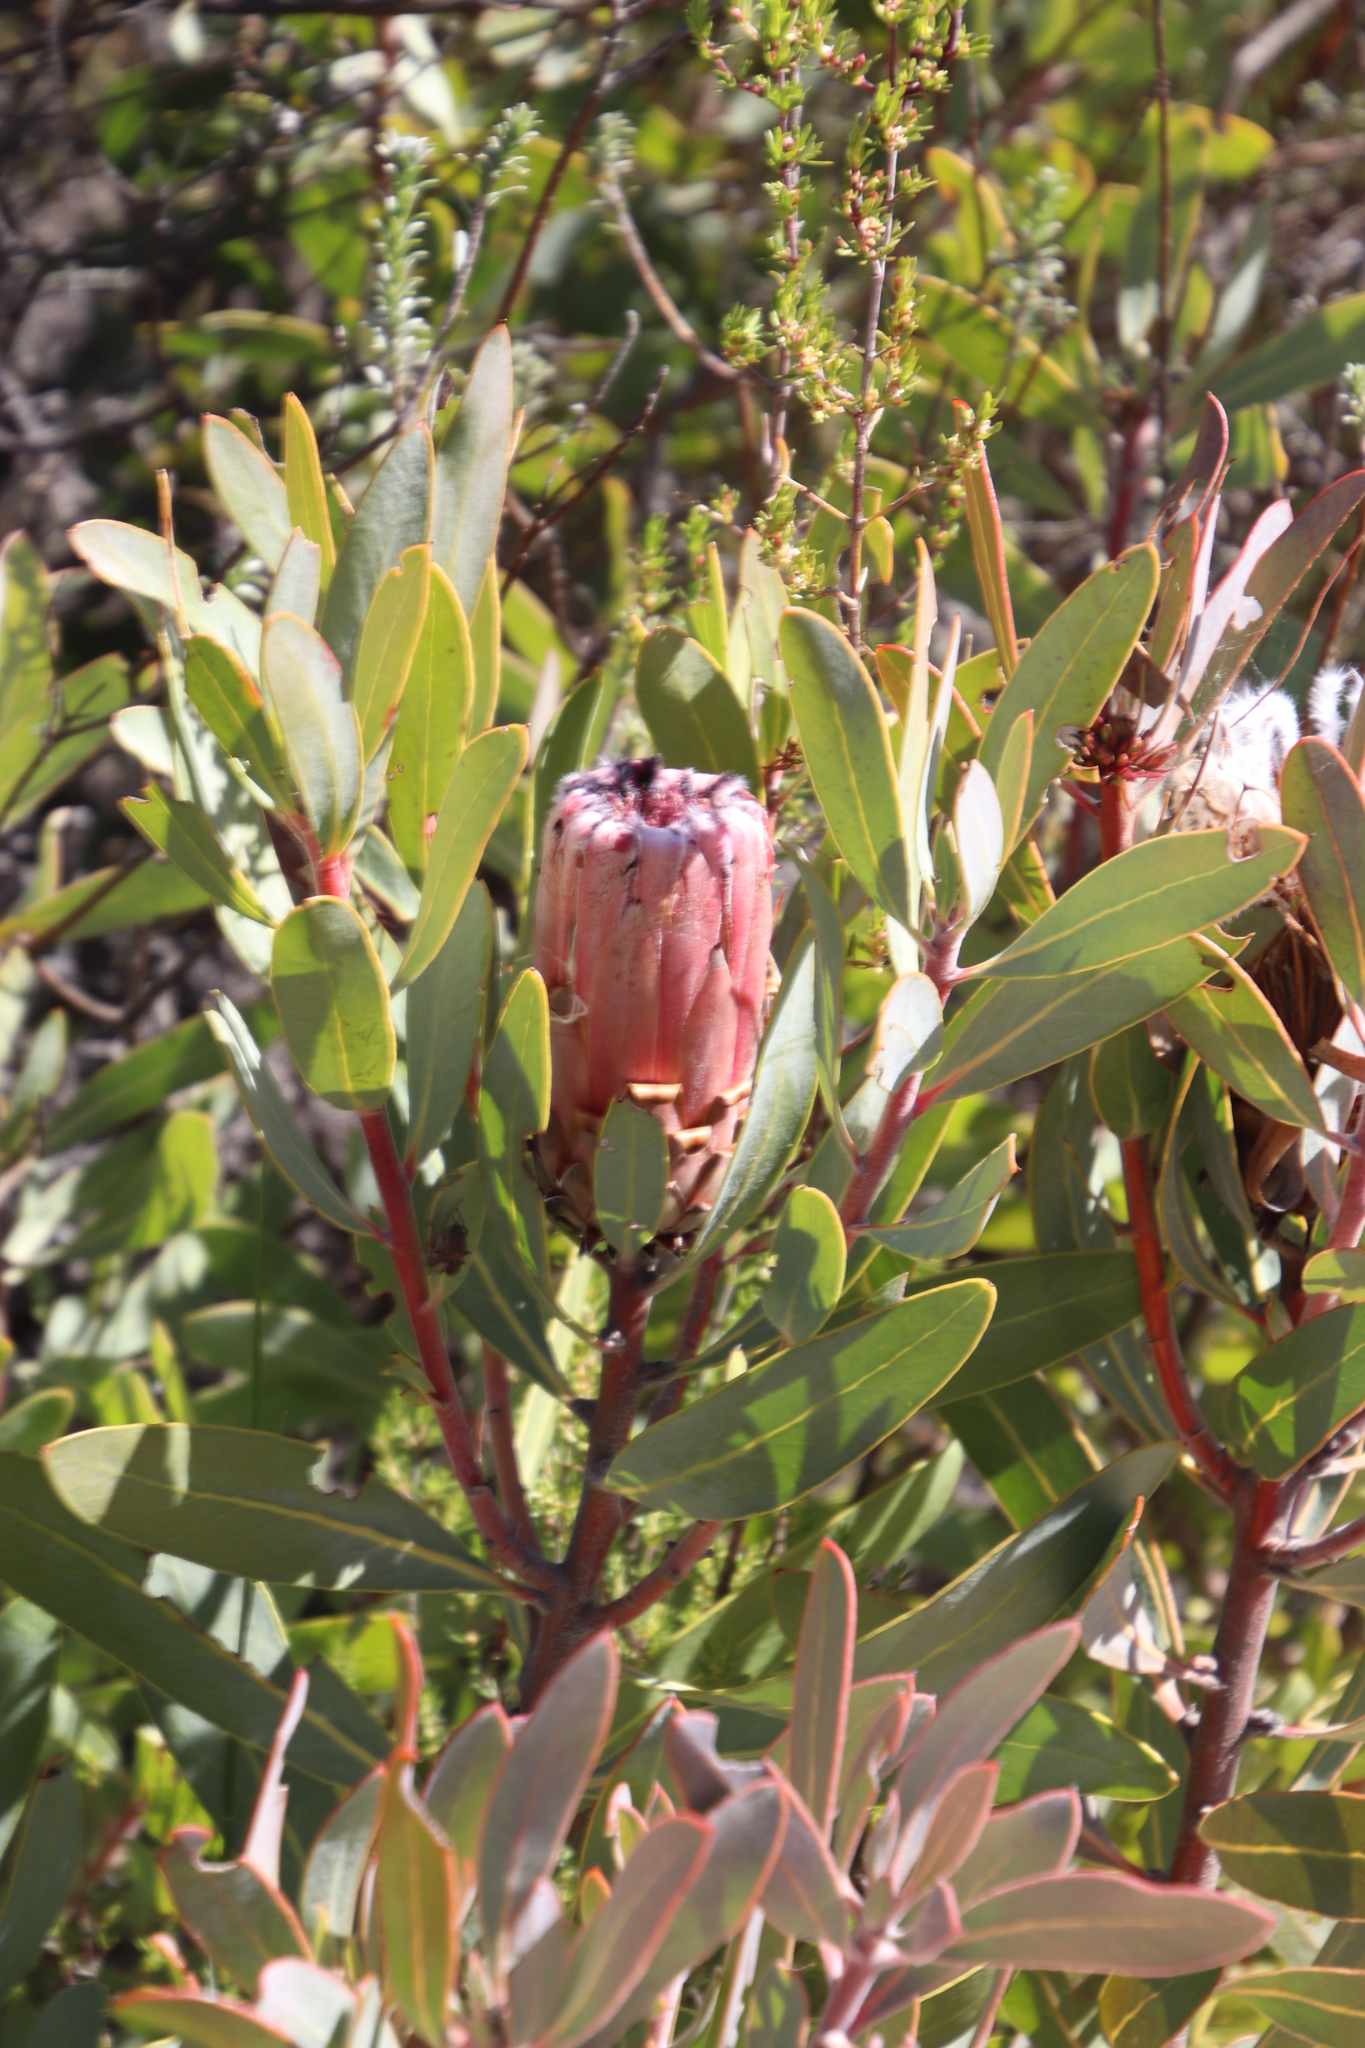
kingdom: Plantae
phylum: Tracheophyta
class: Magnoliopsida
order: Proteales
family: Proteaceae
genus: Protea
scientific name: Protea laurifolia
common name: Grey-leaf sugarbsh
